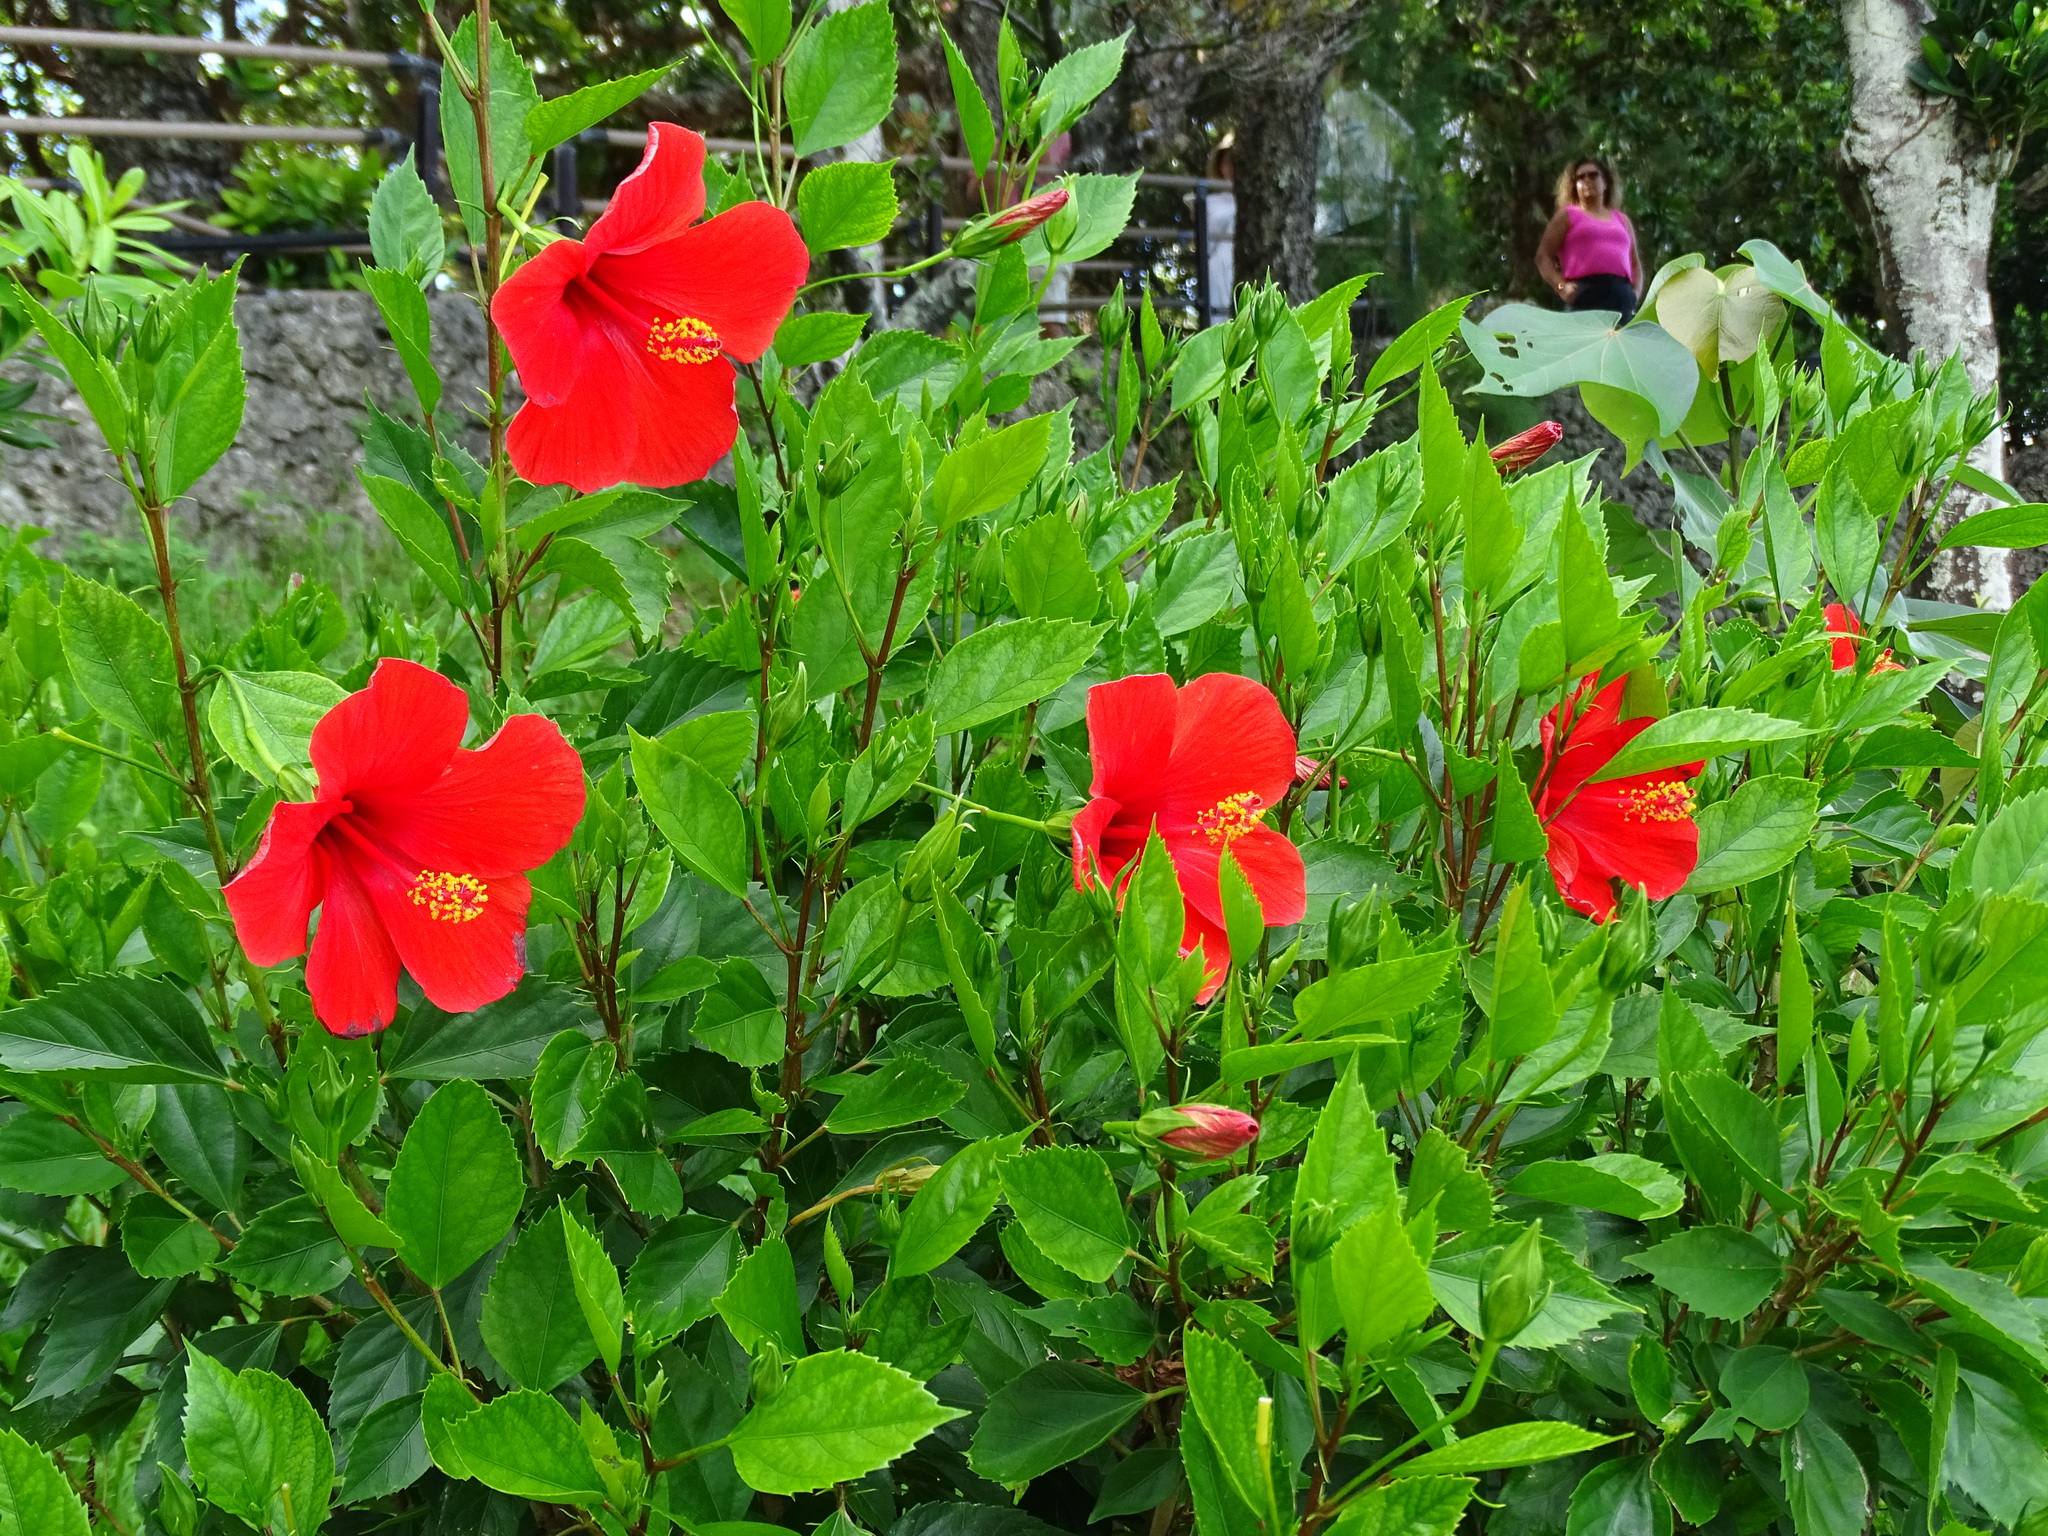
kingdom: Plantae
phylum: Tracheophyta
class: Magnoliopsida
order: Malvales
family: Malvaceae
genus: Hibiscus
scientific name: Hibiscus rosa-sinensis
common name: Hibiscus
